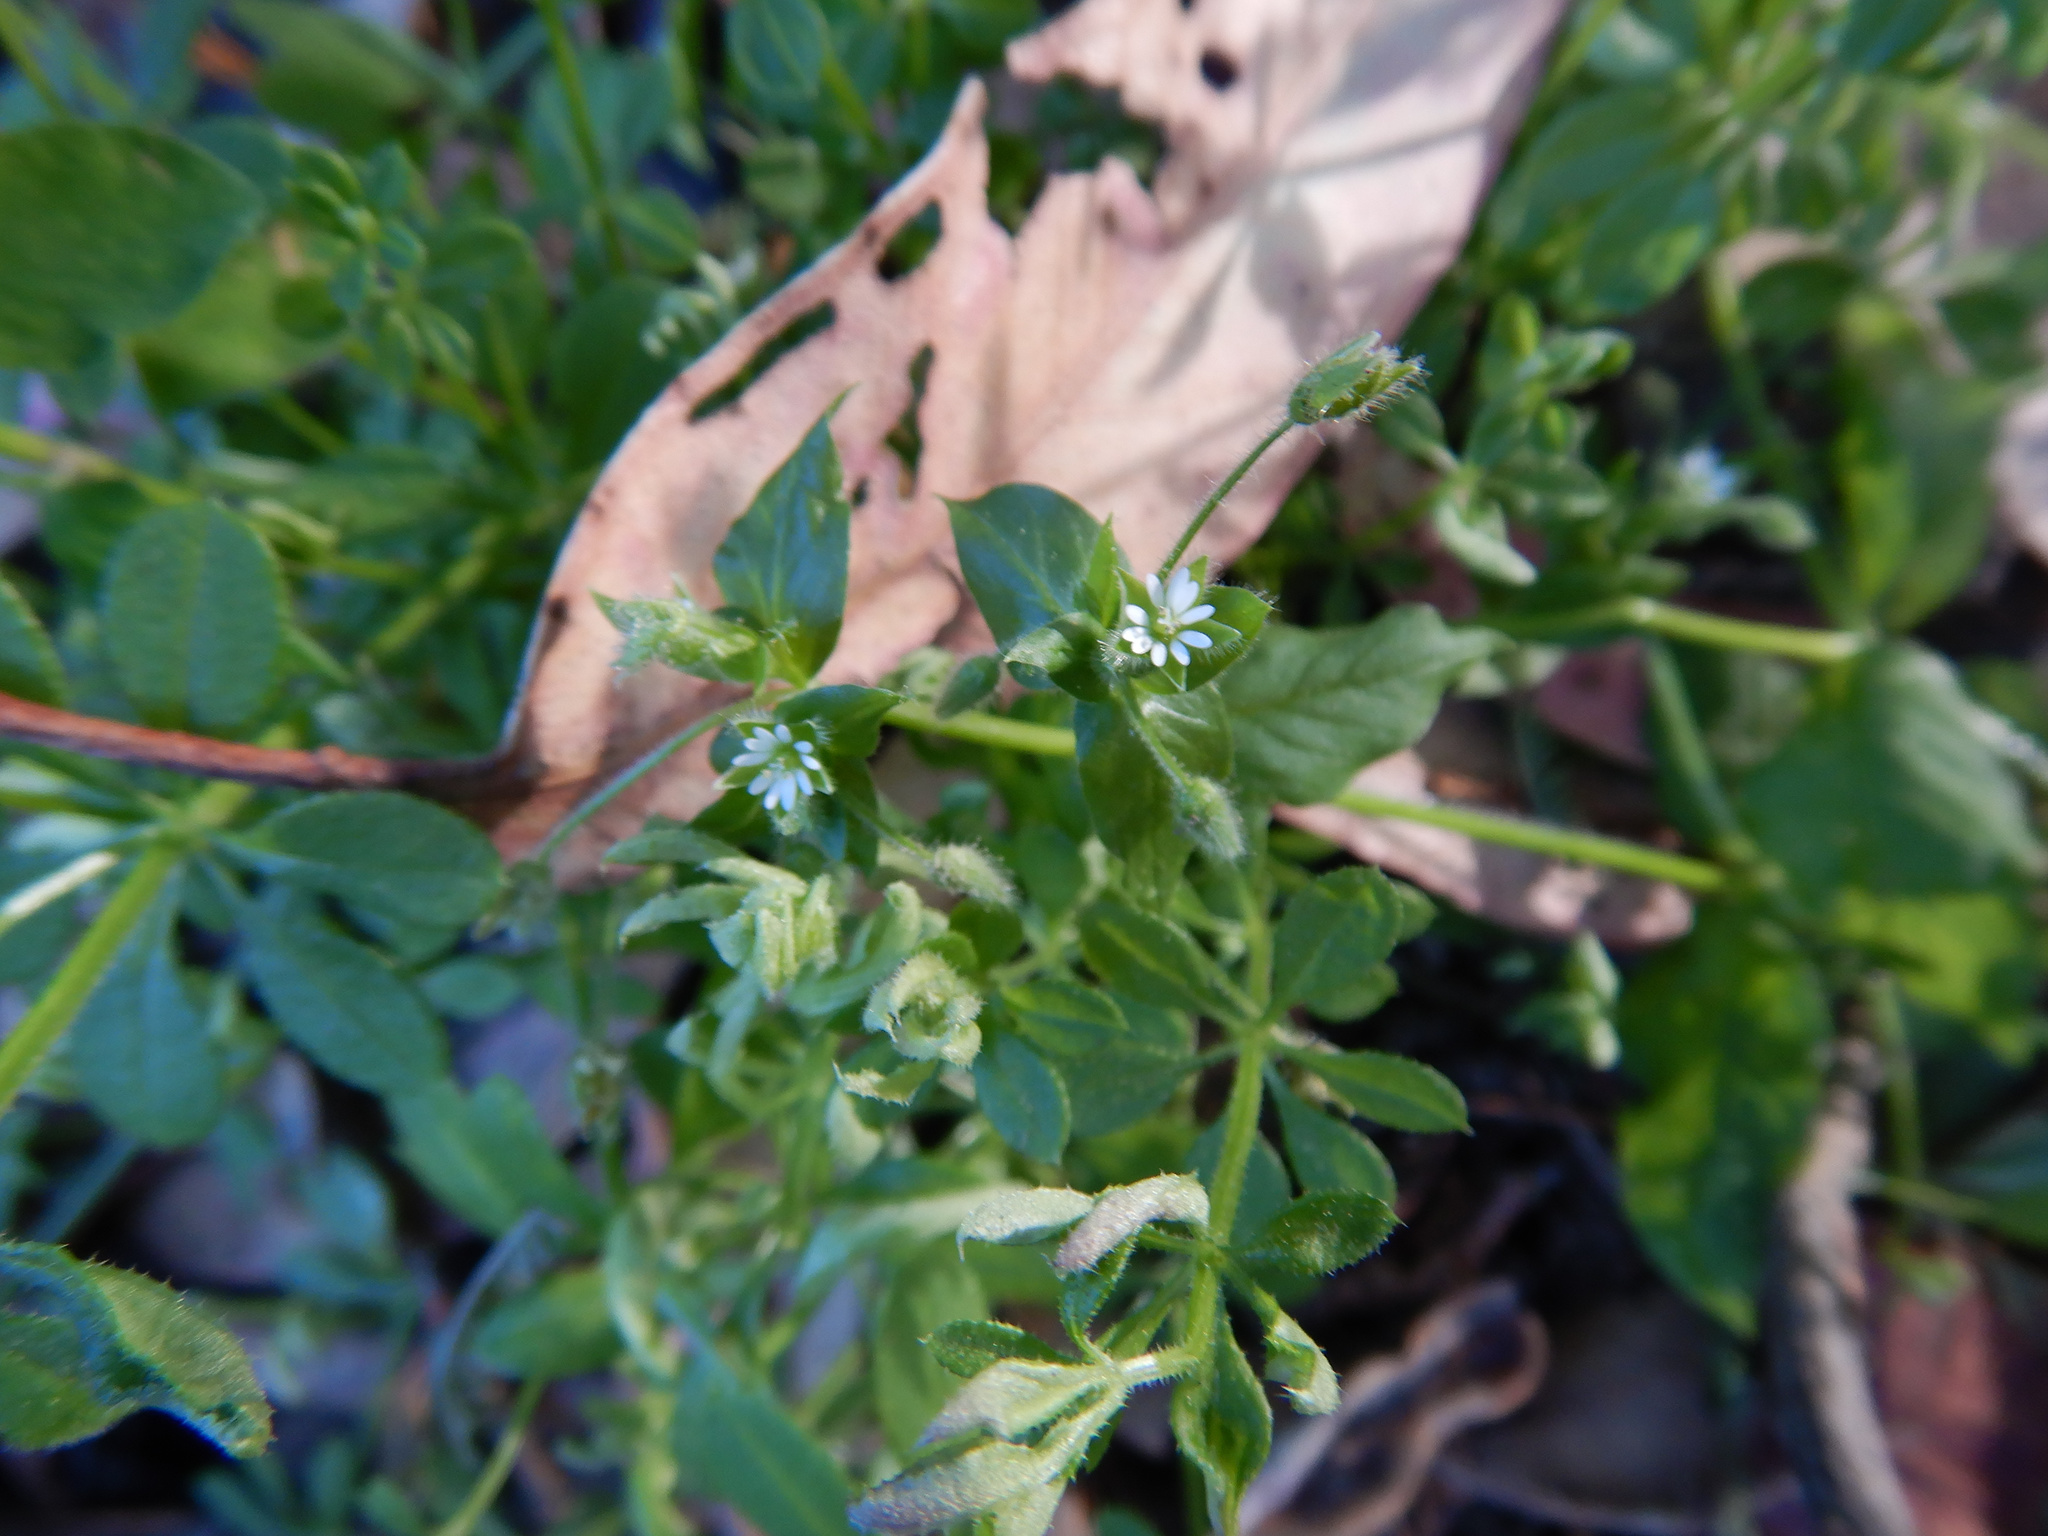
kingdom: Plantae
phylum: Tracheophyta
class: Magnoliopsida
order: Caryophyllales
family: Caryophyllaceae
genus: Stellaria
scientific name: Stellaria media
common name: Common chickweed
